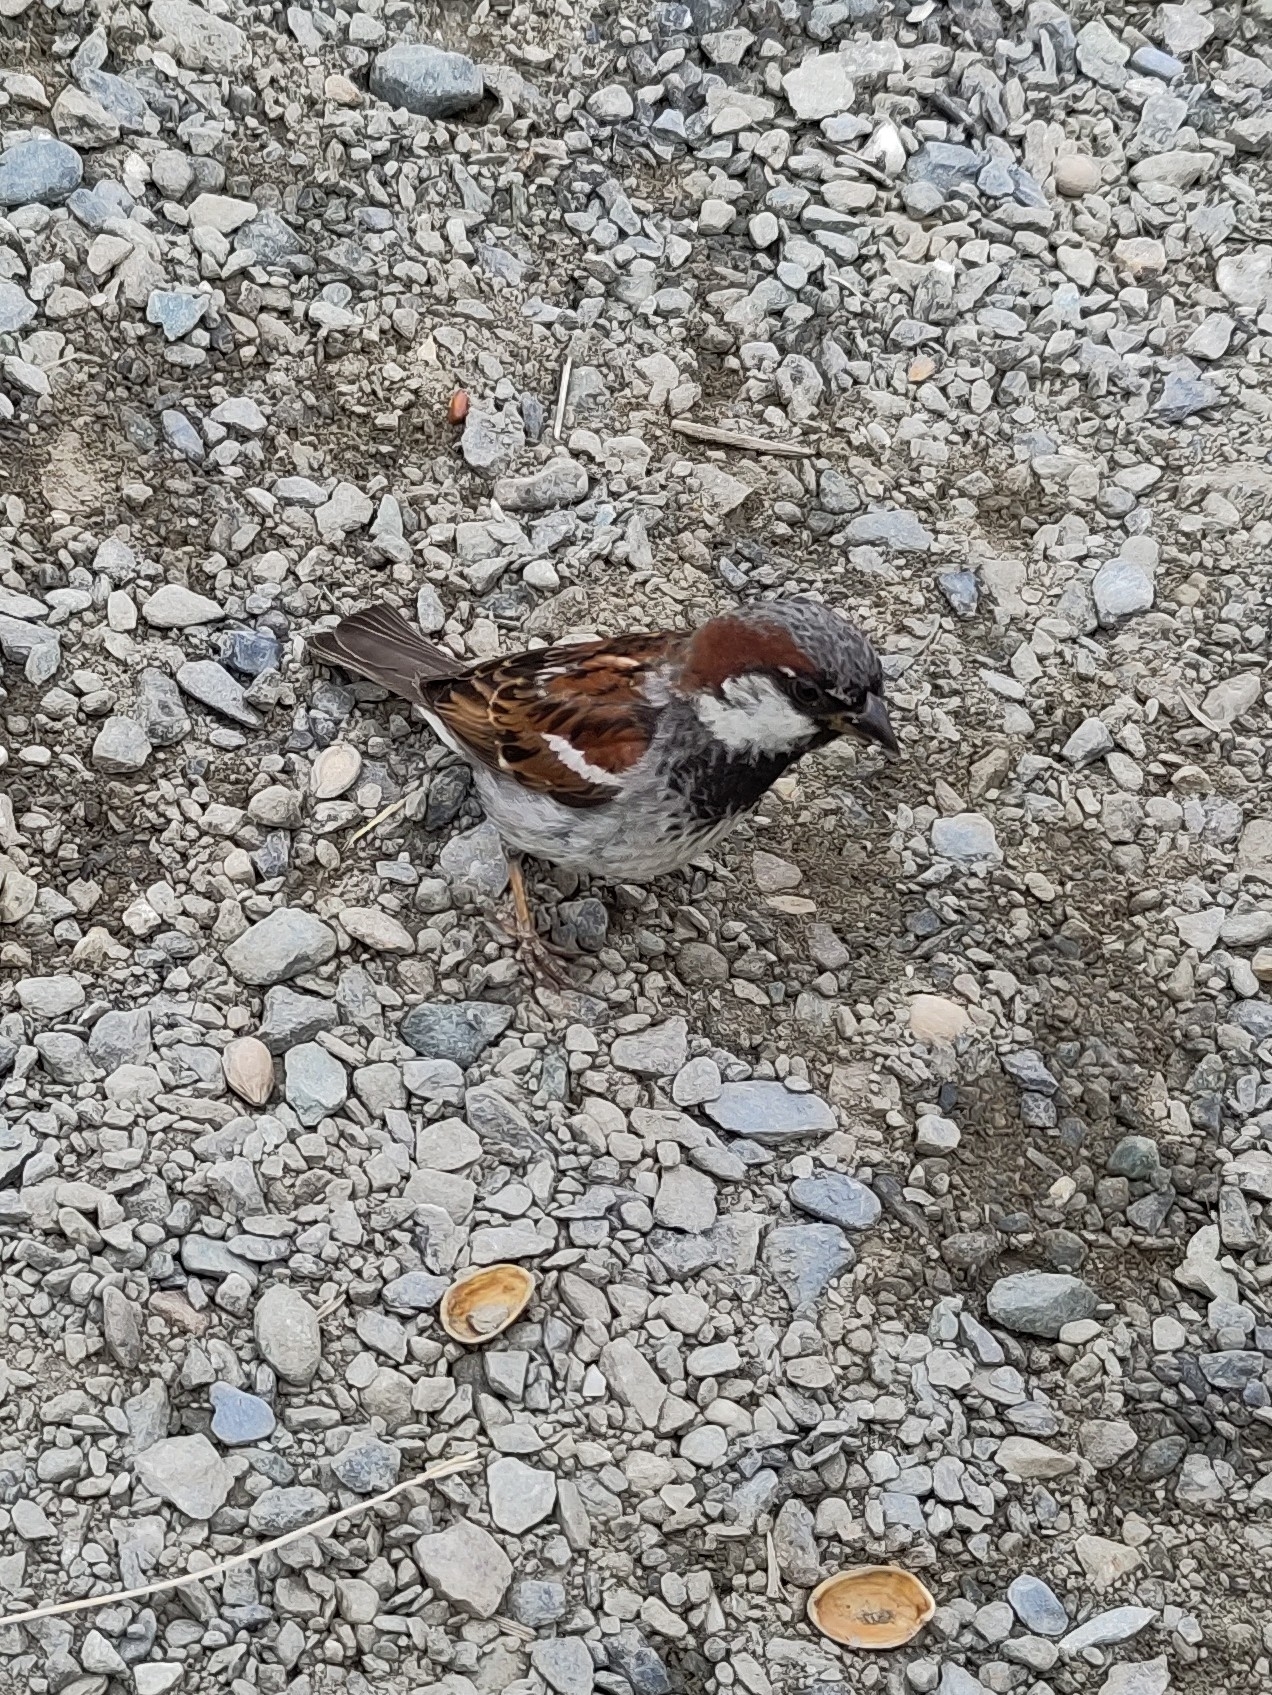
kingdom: Animalia
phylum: Chordata
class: Aves
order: Passeriformes
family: Passeridae
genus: Passer
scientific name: Passer domesticus
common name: House sparrow
